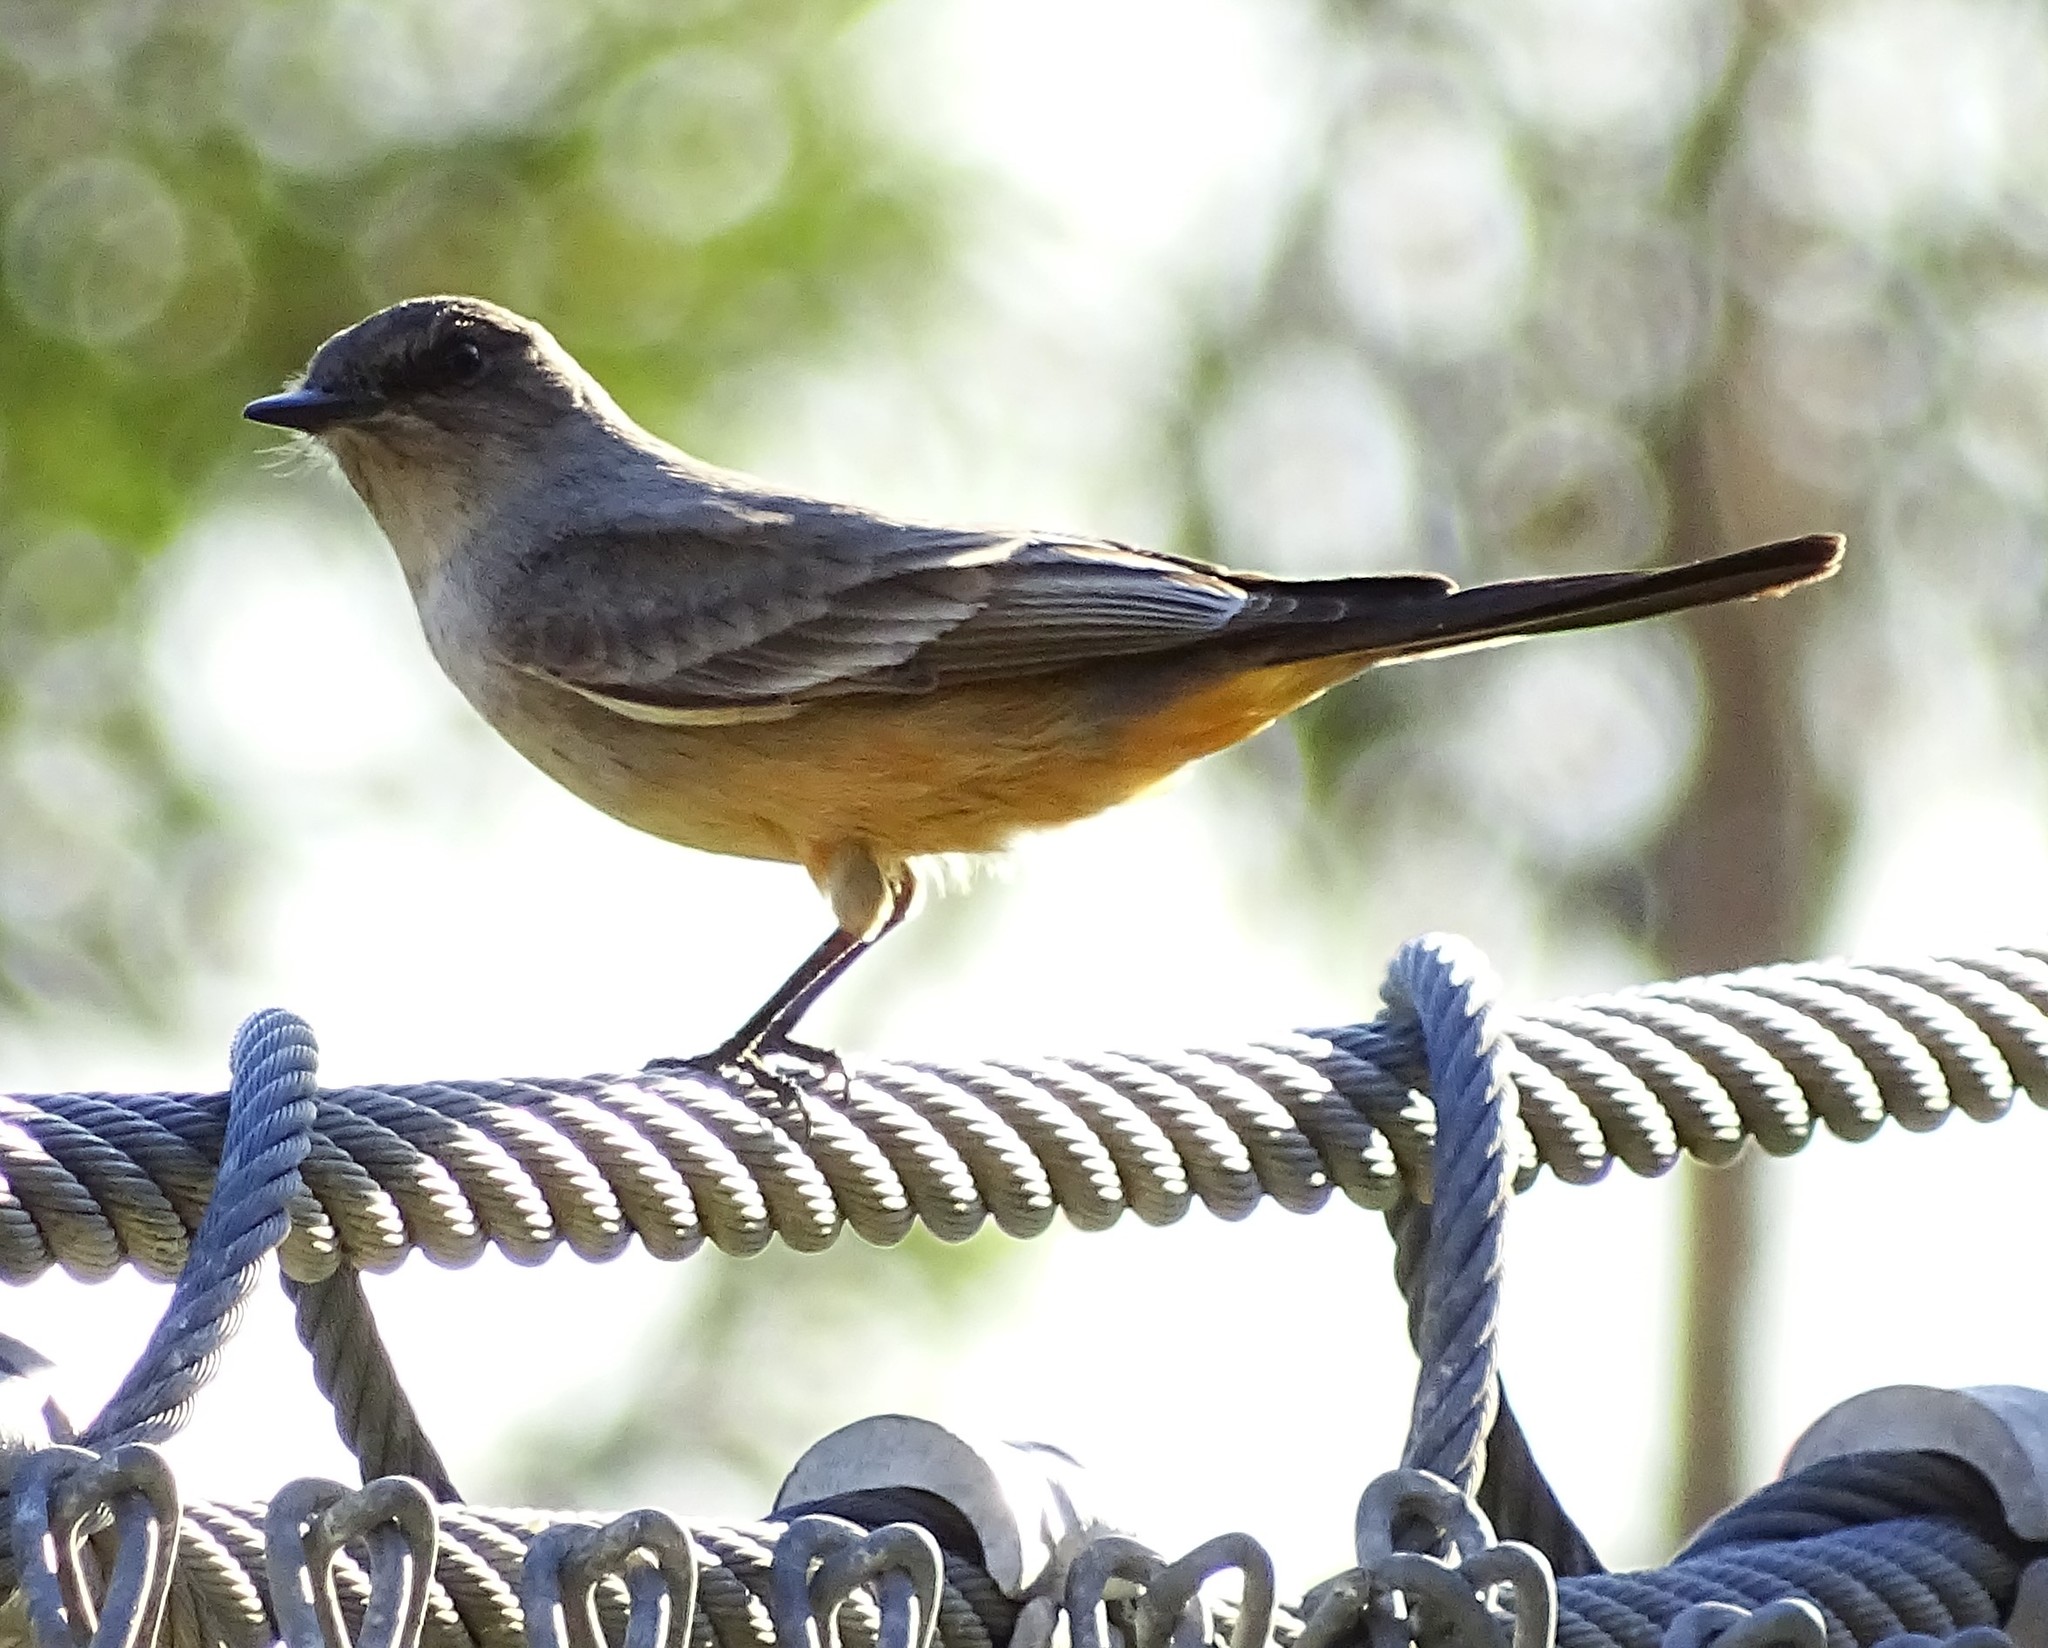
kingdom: Animalia
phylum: Chordata
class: Aves
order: Passeriformes
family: Tyrannidae
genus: Sayornis
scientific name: Sayornis saya
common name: Say's phoebe
